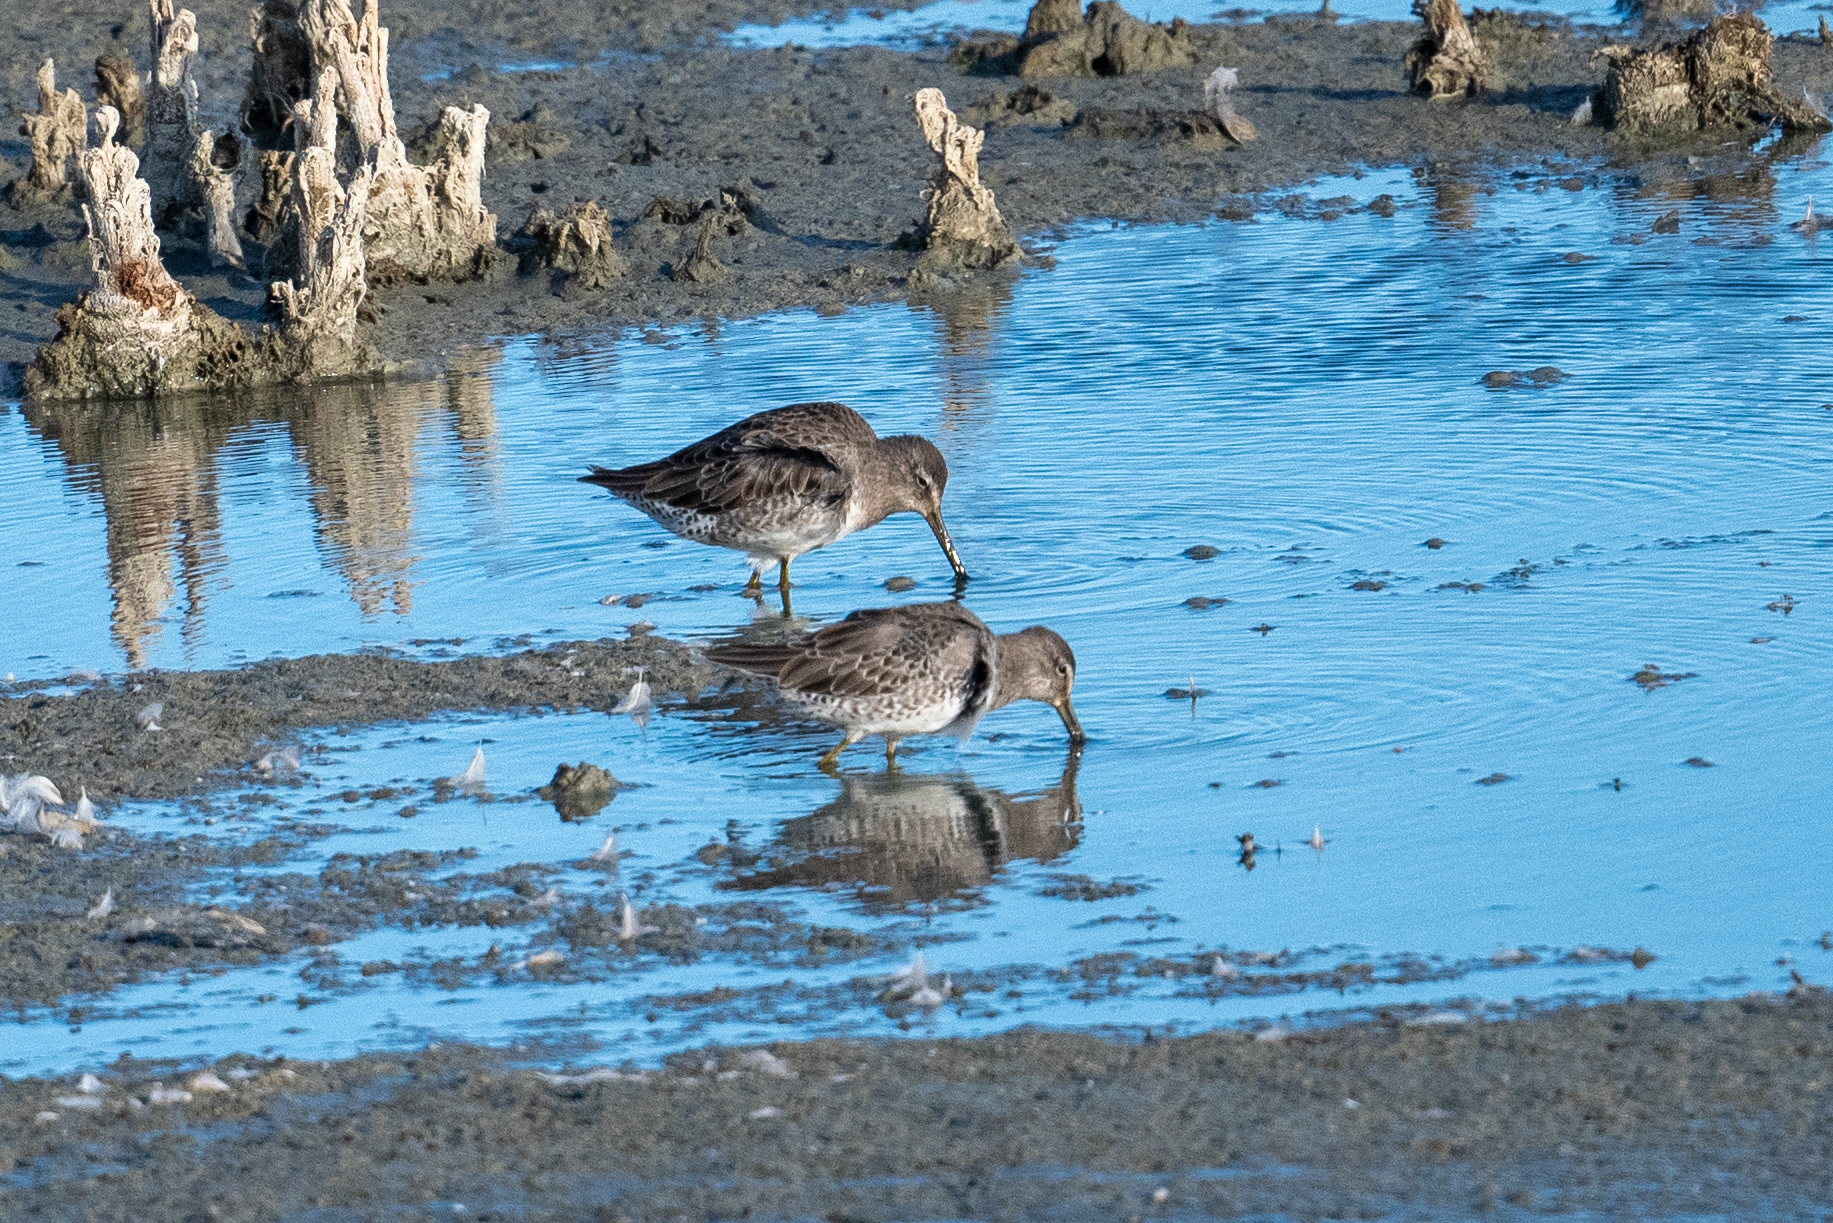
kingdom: Animalia
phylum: Chordata
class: Aves
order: Charadriiformes
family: Scolopacidae
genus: Limnodromus
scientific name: Limnodromus scolopaceus
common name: Long-billed dowitcher
